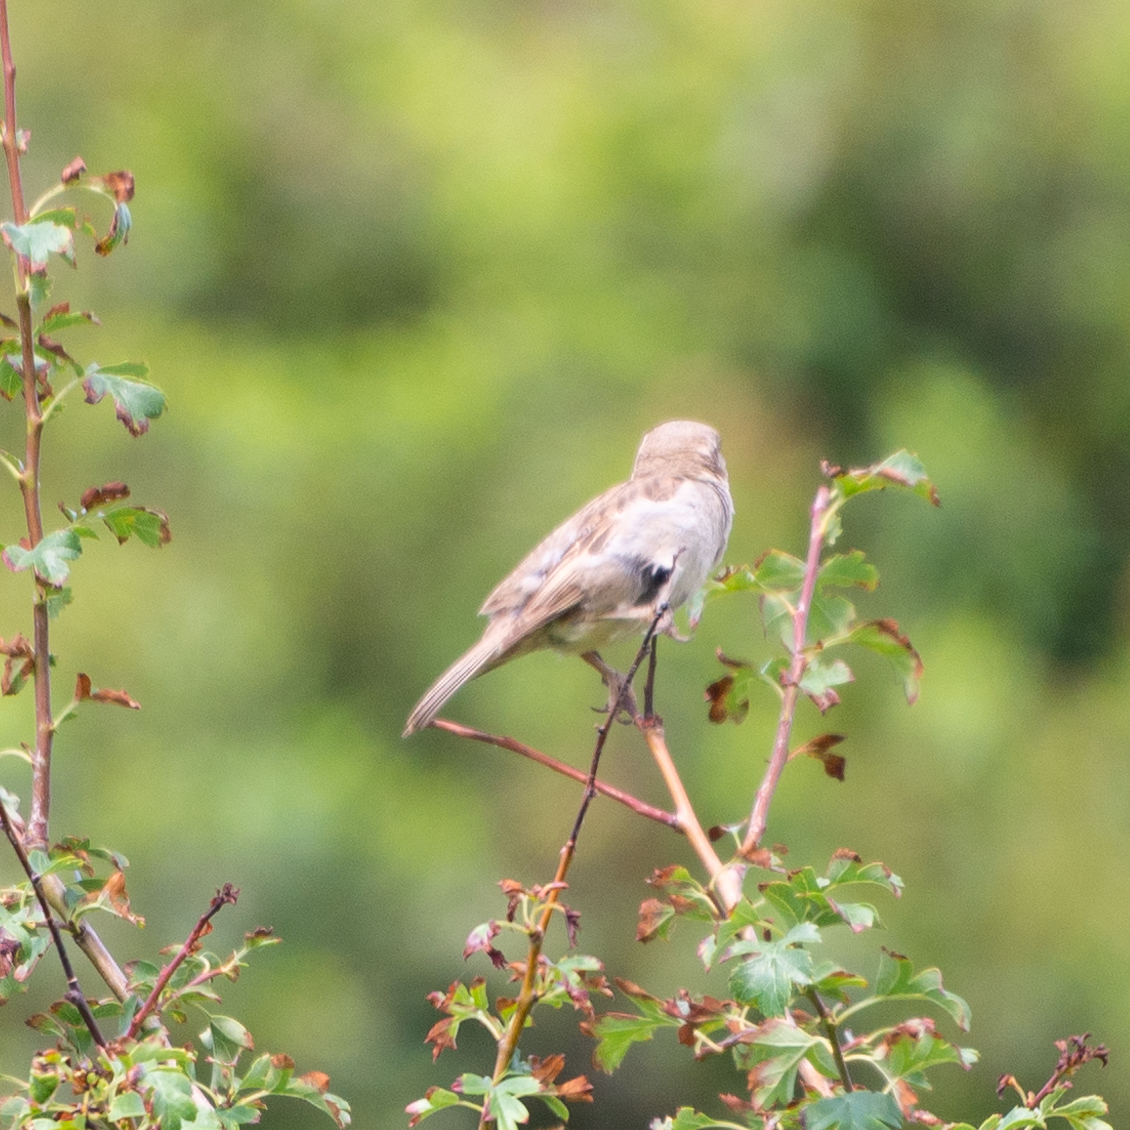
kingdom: Animalia
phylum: Chordata
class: Aves
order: Passeriformes
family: Passeridae
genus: Passer
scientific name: Passer domesticus
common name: House sparrow
